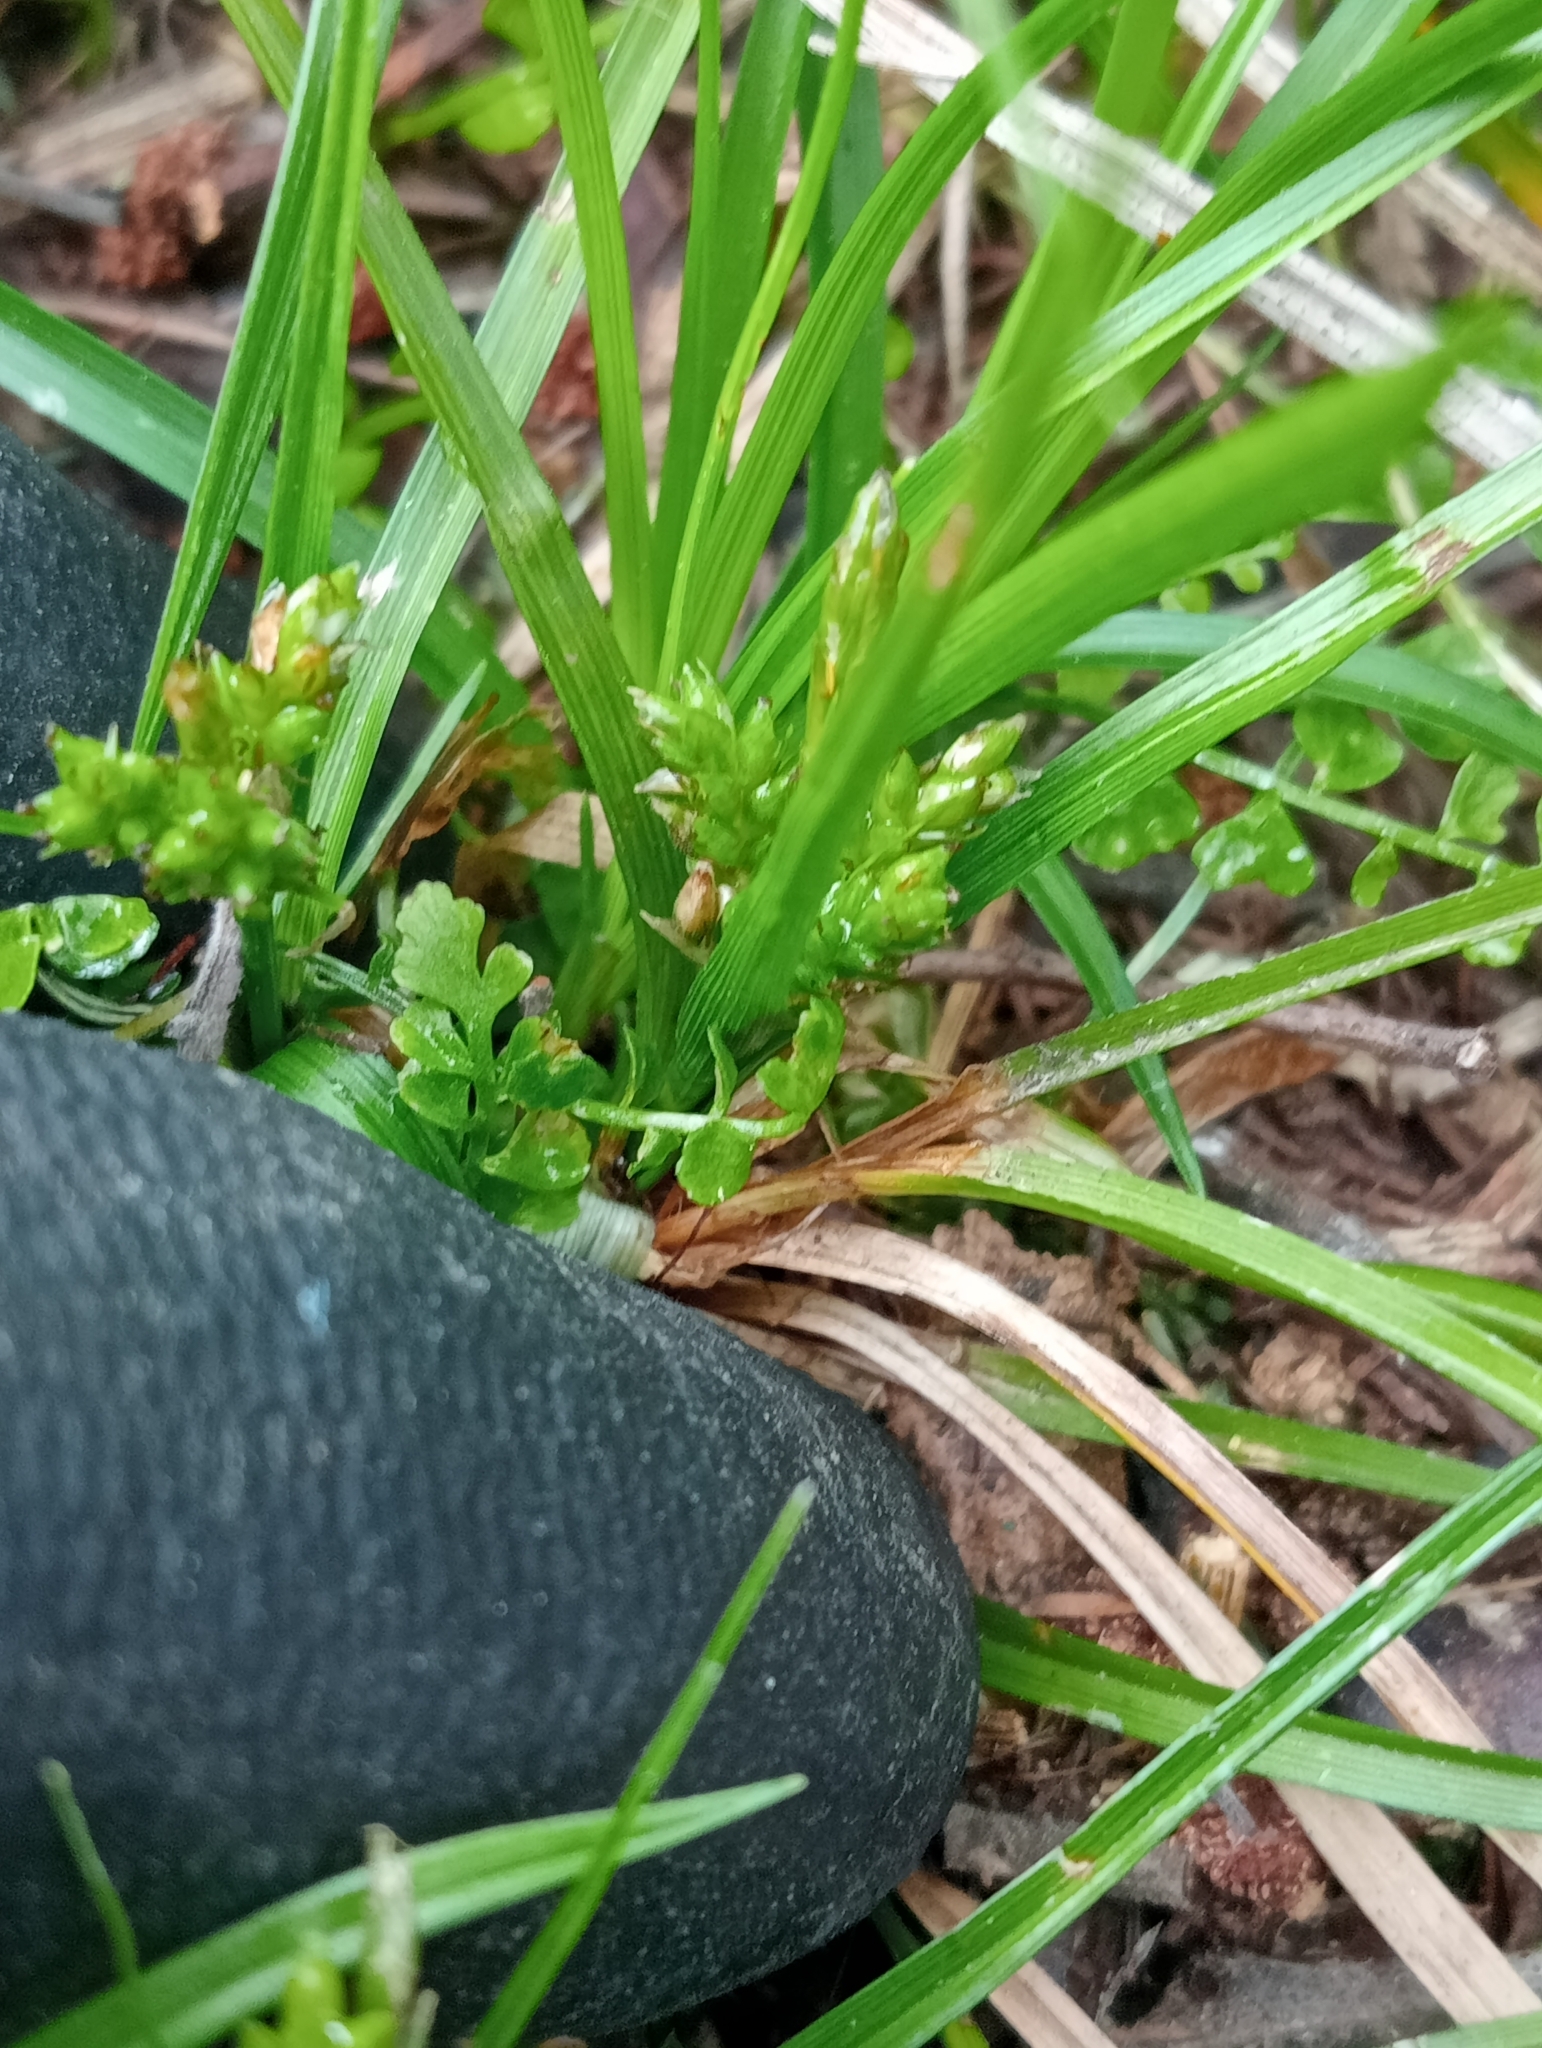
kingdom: Plantae
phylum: Tracheophyta
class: Liliopsida
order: Poales
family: Cyperaceae
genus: Carex
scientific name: Carex breviculmis
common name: Asian shortstem sedge
